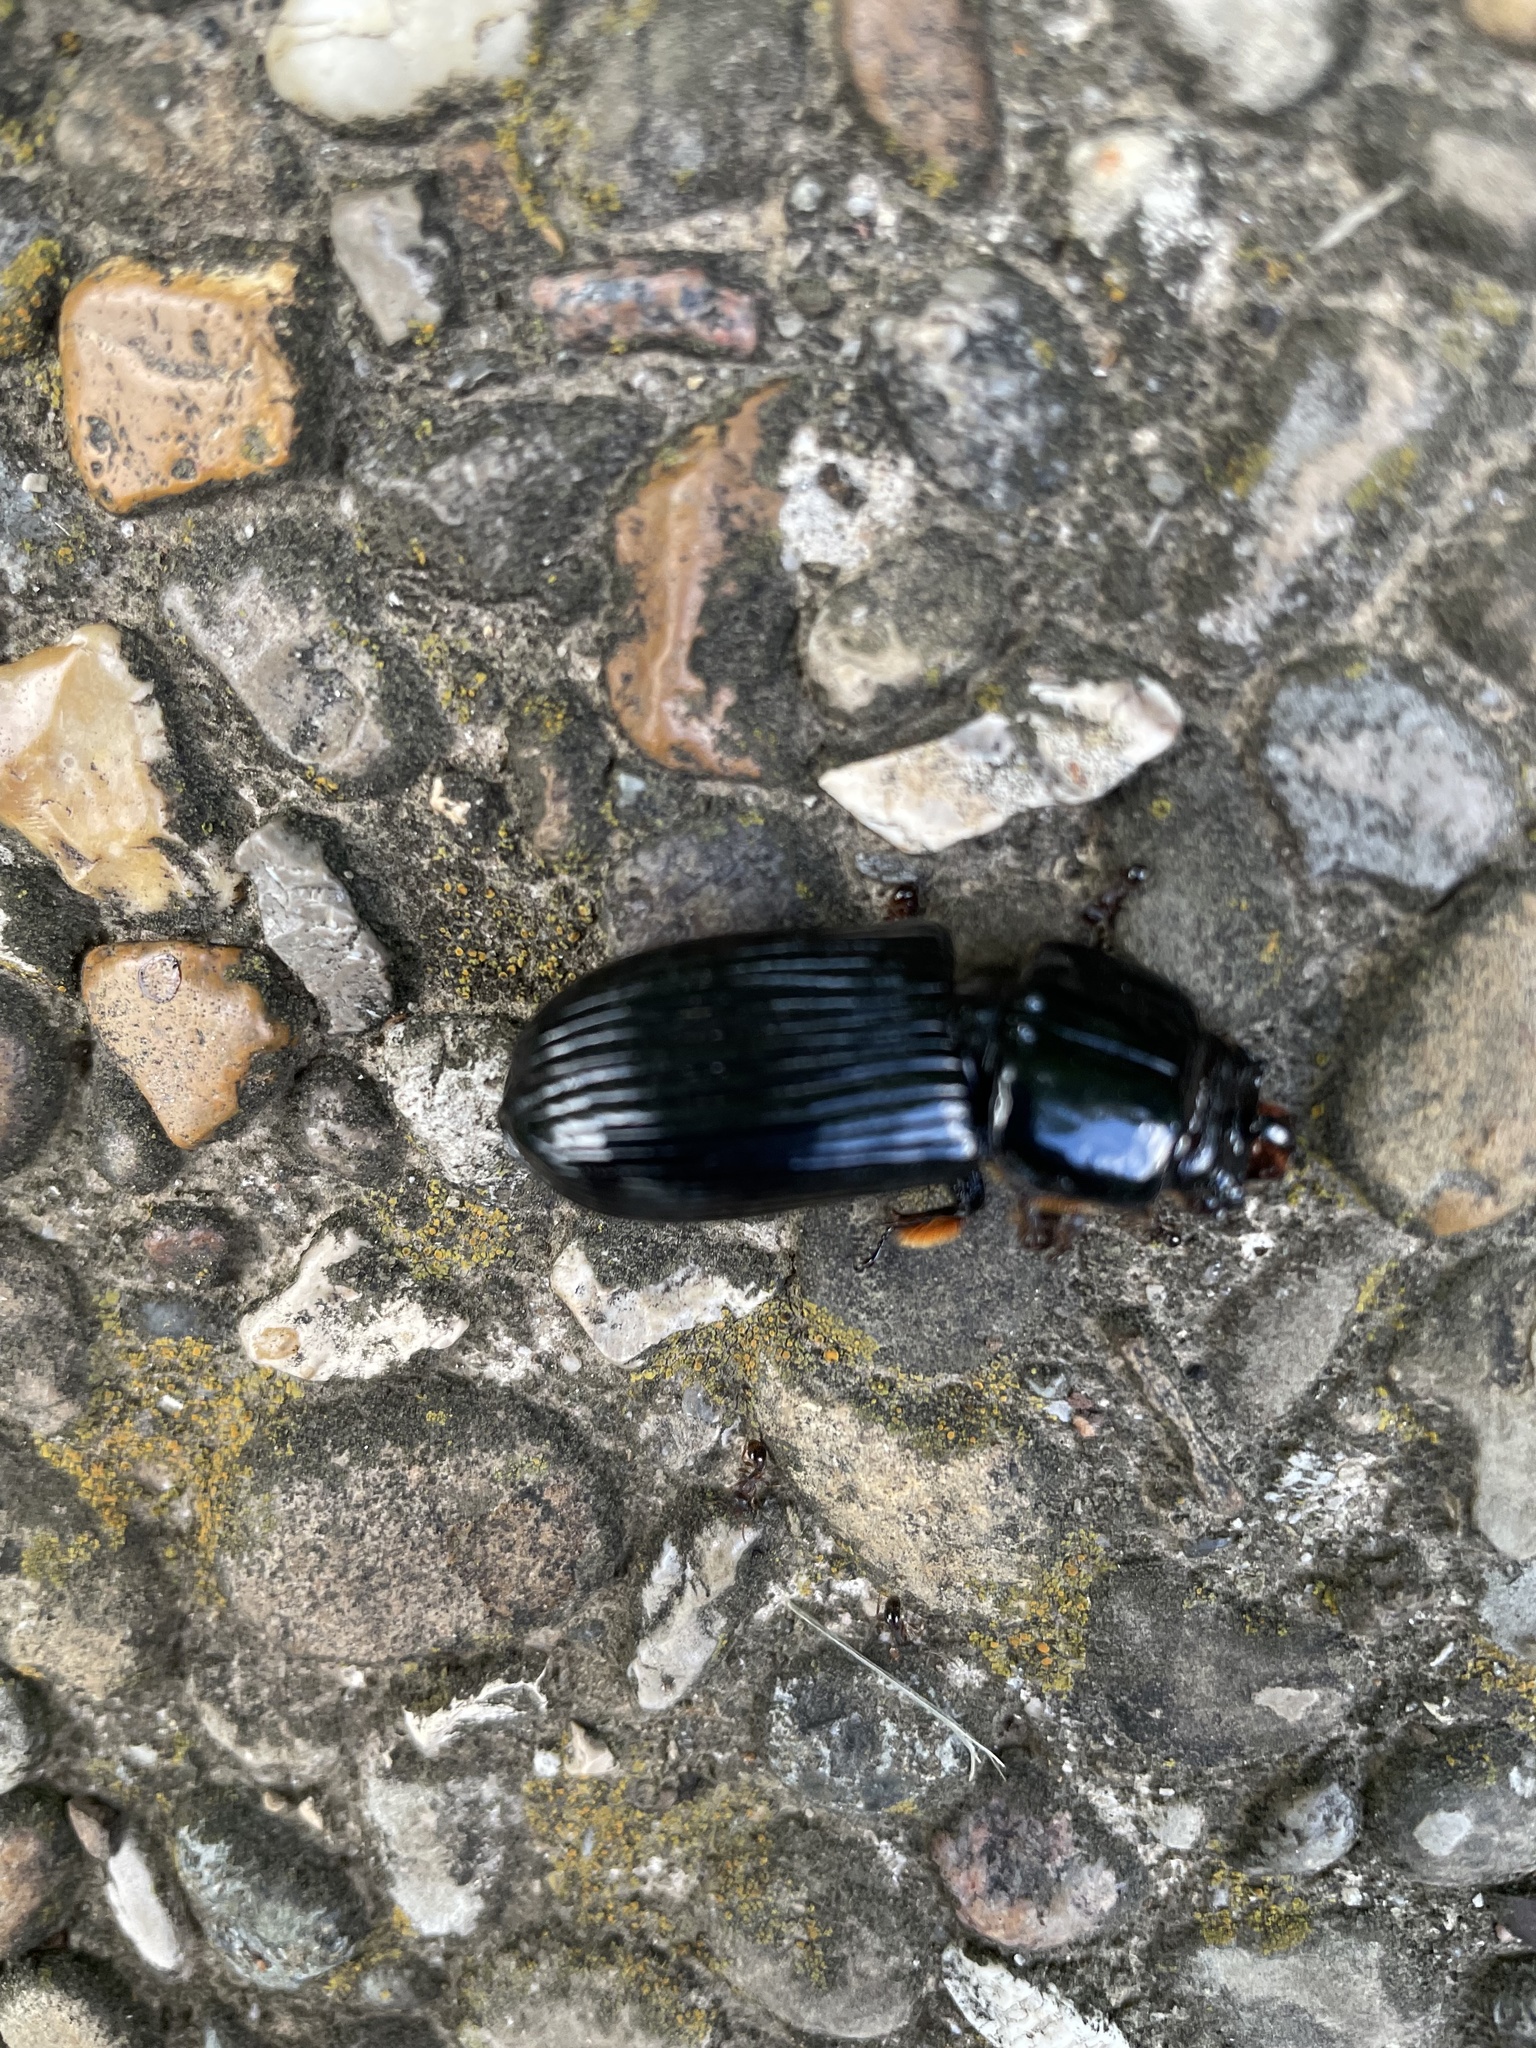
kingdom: Animalia
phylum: Arthropoda
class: Insecta
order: Coleoptera
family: Passalidae
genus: Odontotaenius
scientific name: Odontotaenius disjunctus
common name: Patent leather beetle
